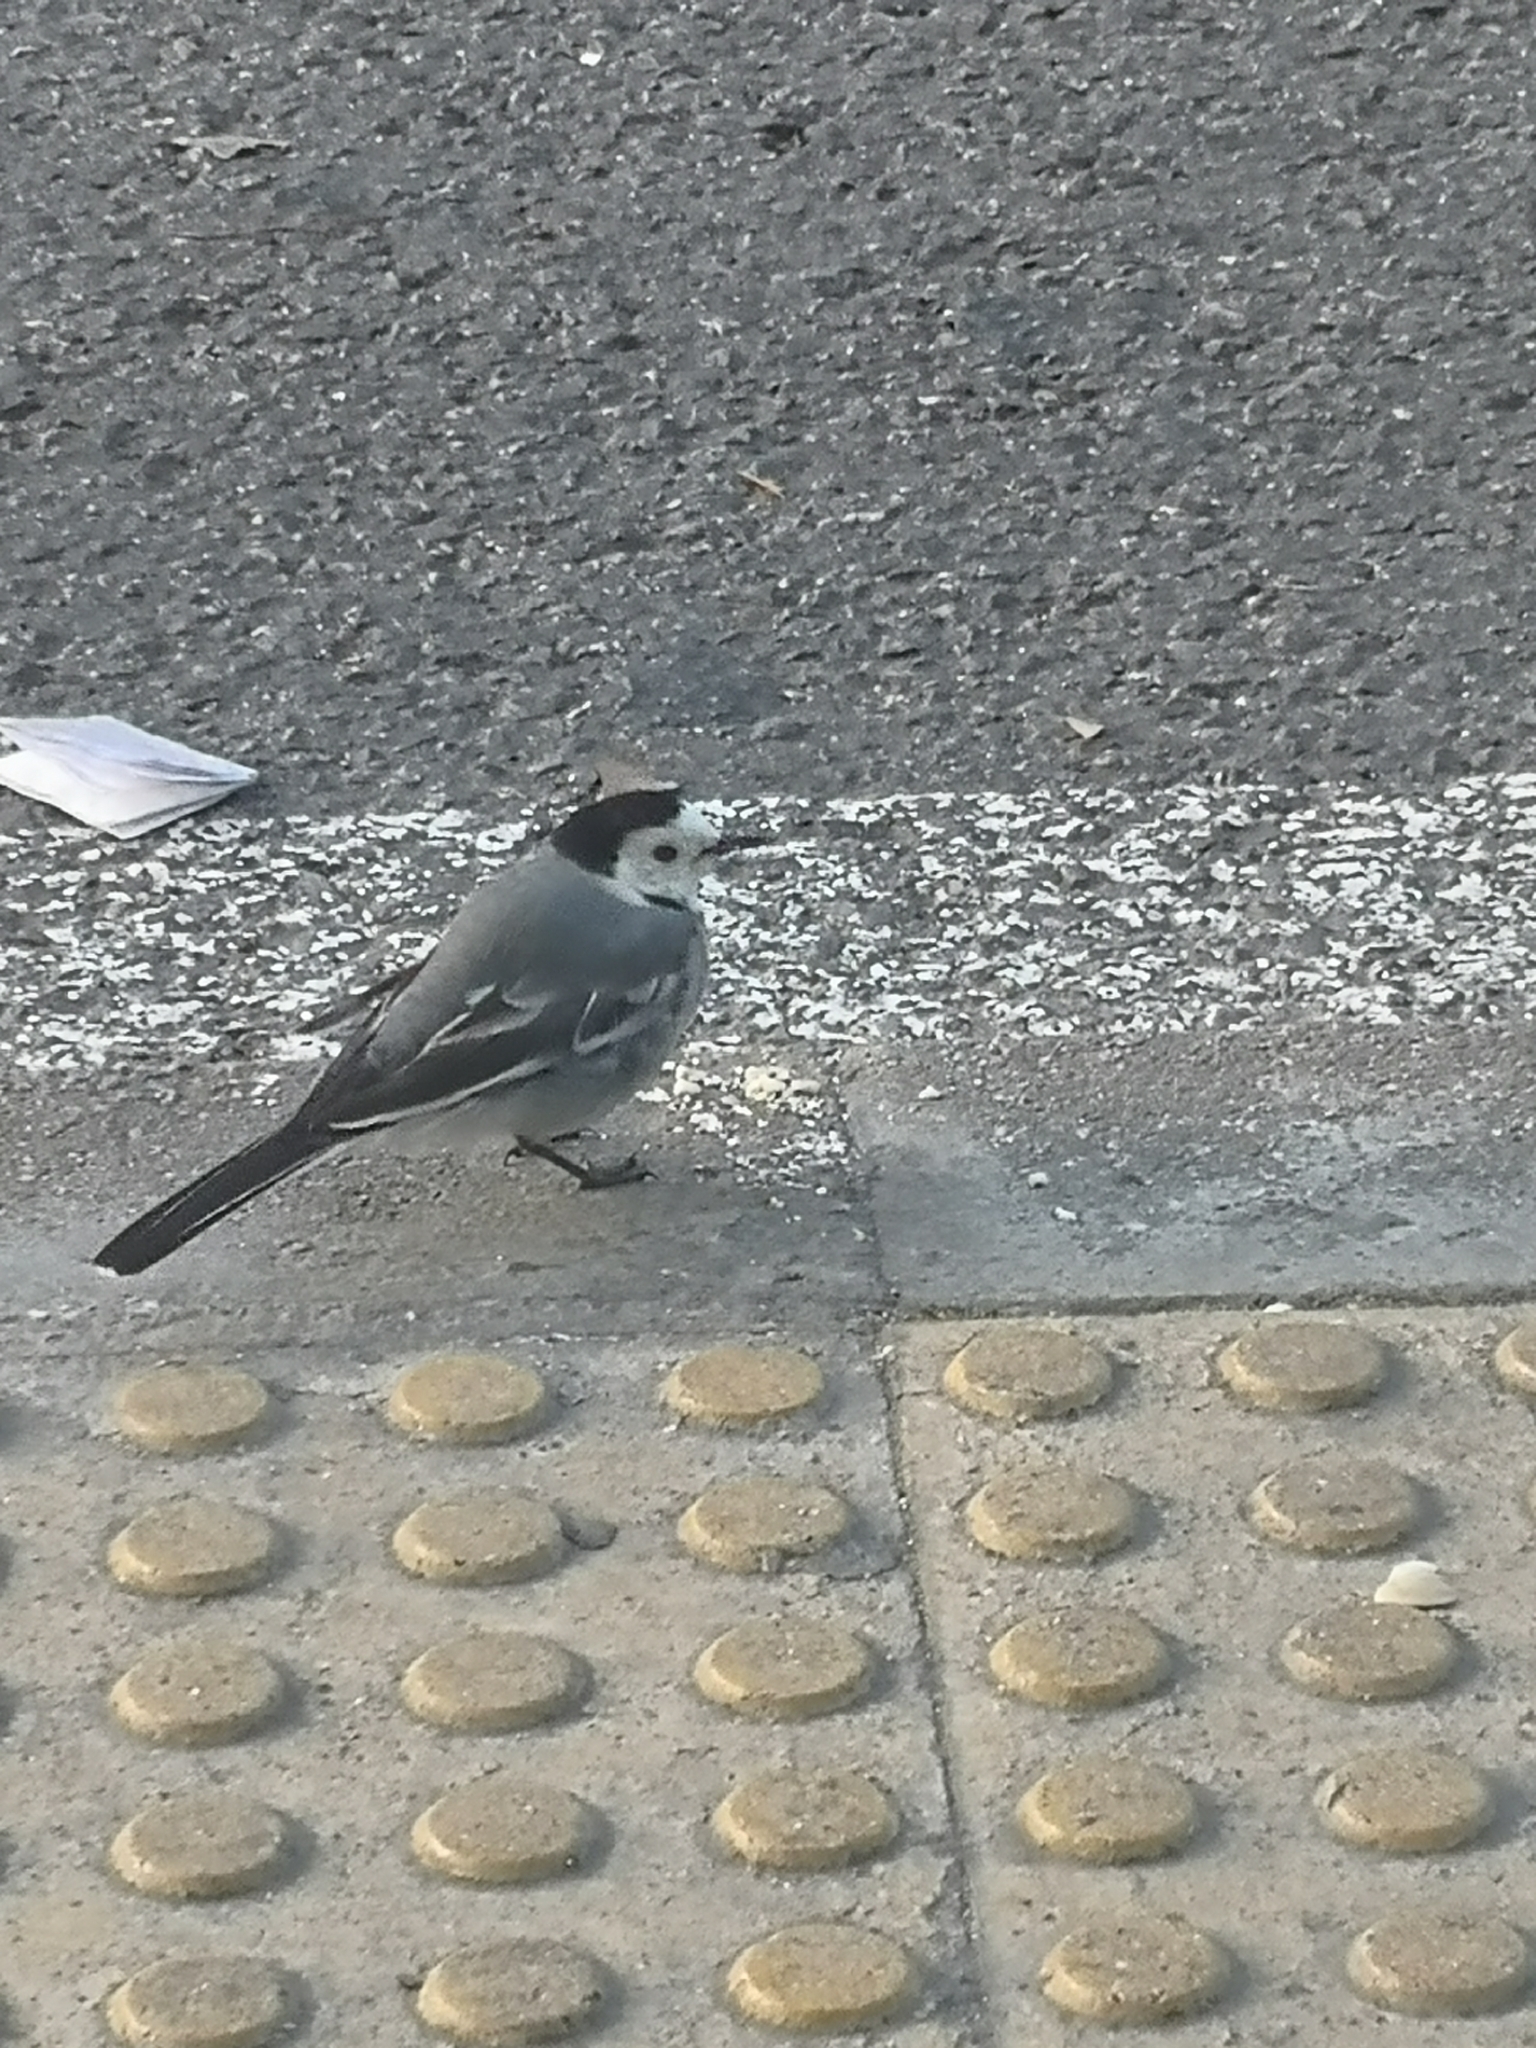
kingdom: Animalia
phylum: Chordata
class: Aves
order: Passeriformes
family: Motacillidae
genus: Motacilla
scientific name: Motacilla alba
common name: White wagtail
